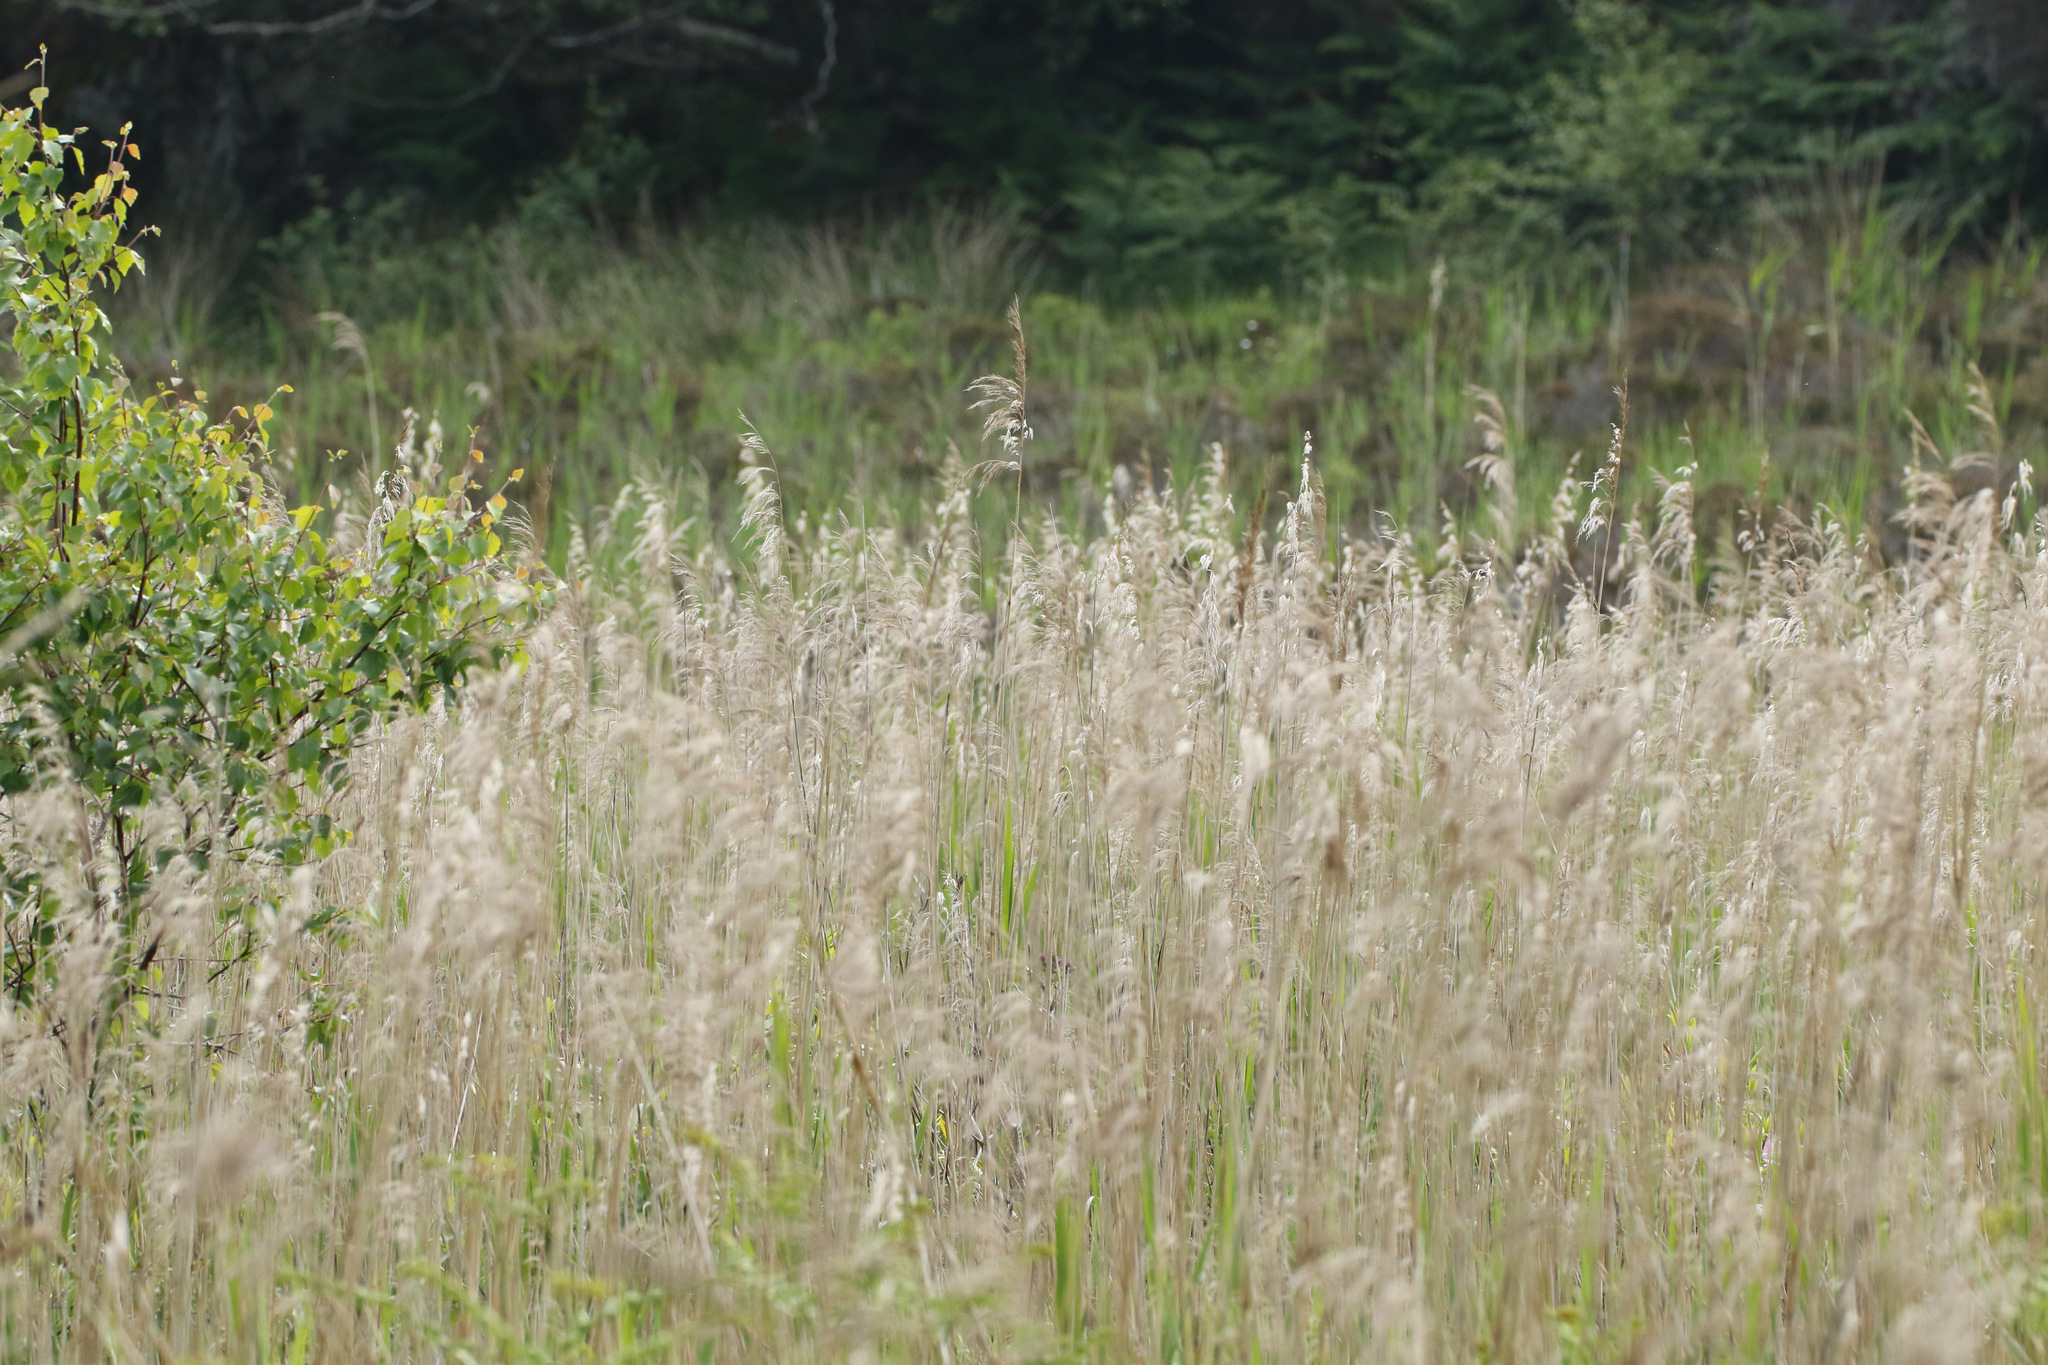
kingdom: Plantae
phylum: Tracheophyta
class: Liliopsida
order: Poales
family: Poaceae
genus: Phragmites
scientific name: Phragmites australis
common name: Common reed
